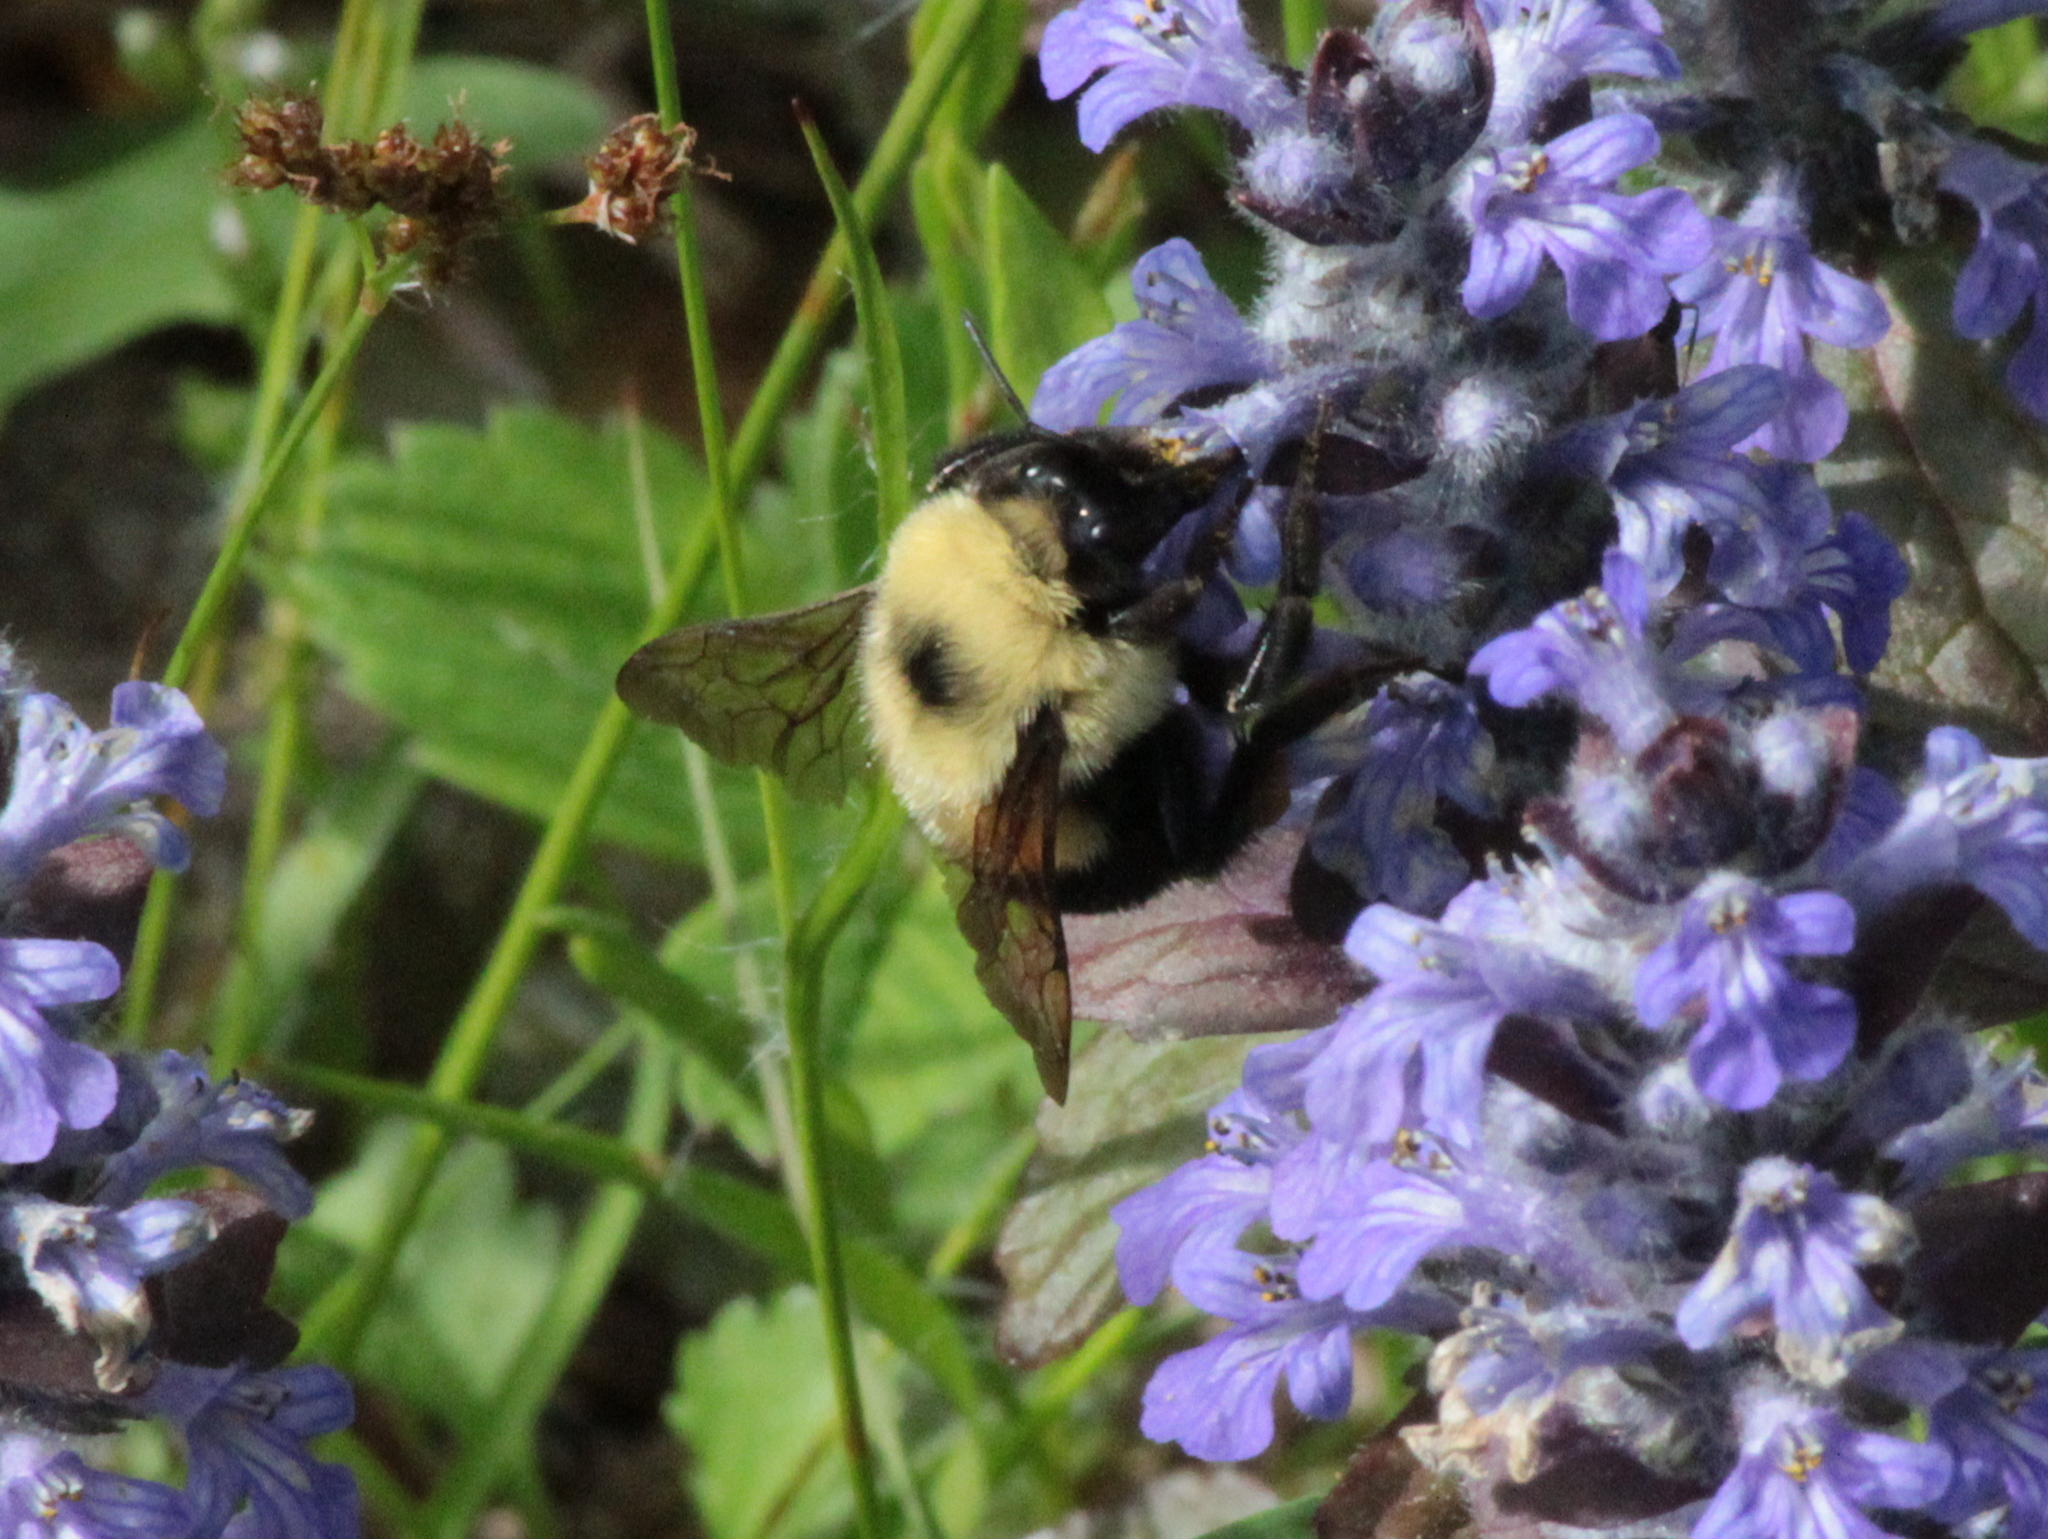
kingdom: Animalia
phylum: Arthropoda
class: Insecta
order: Hymenoptera
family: Apidae
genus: Bombus
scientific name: Bombus bimaculatus
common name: Two-spotted bumble bee
